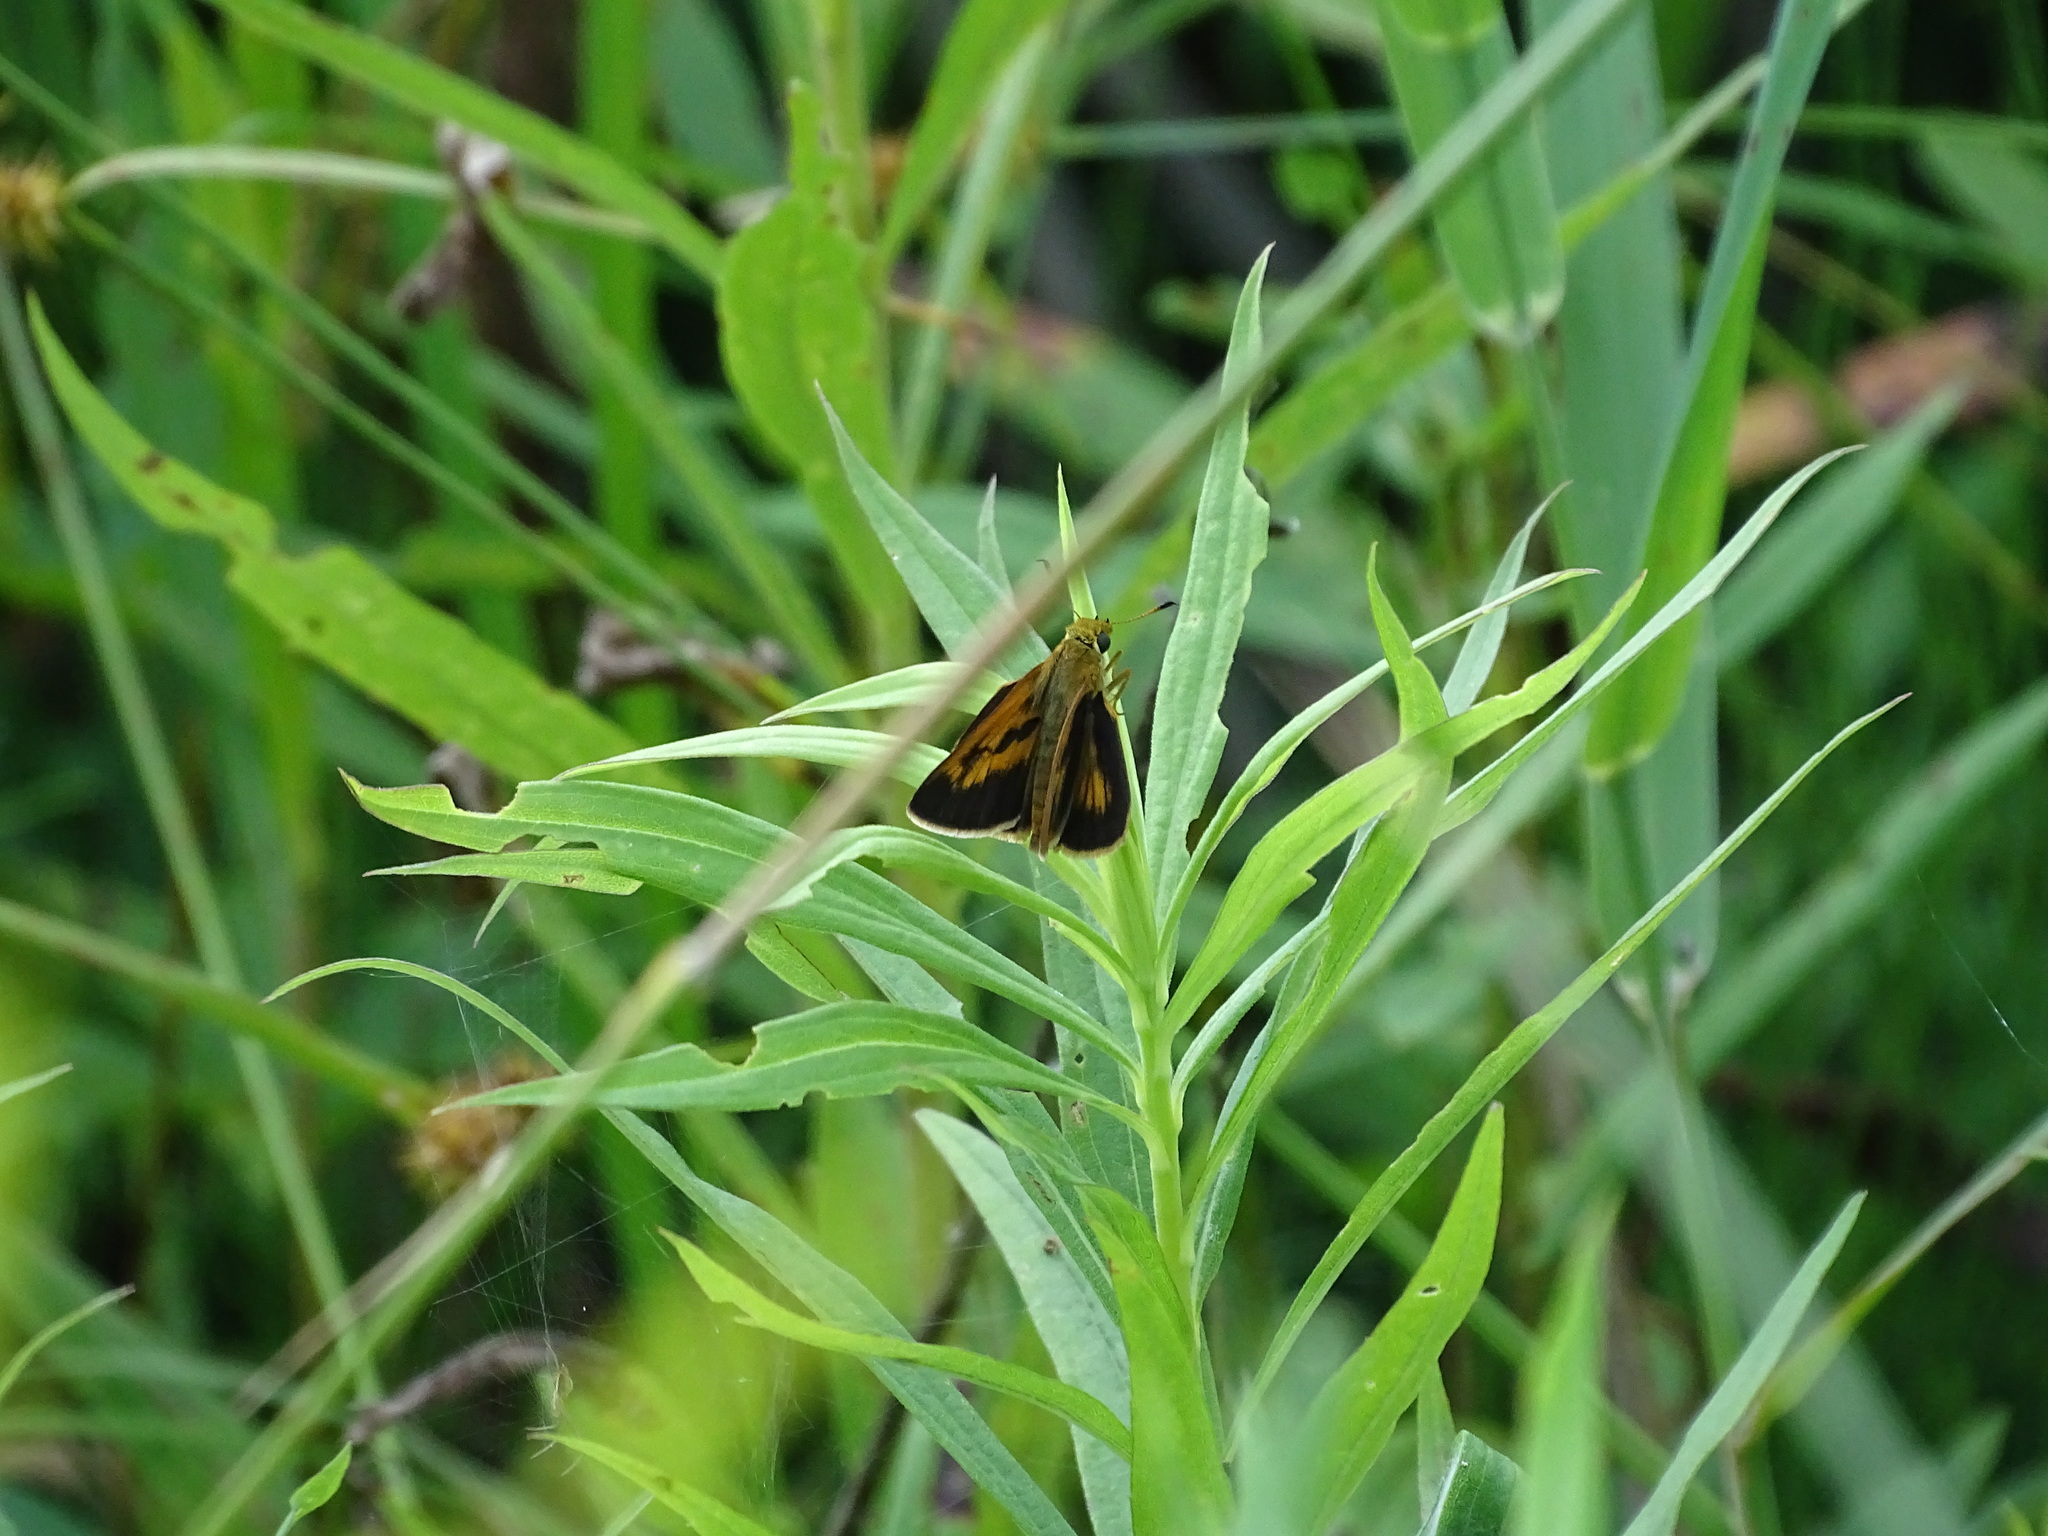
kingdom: Animalia
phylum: Arthropoda
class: Insecta
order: Lepidoptera
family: Hesperiidae
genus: Euphyes
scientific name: Euphyes conspicua
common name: Black dash
